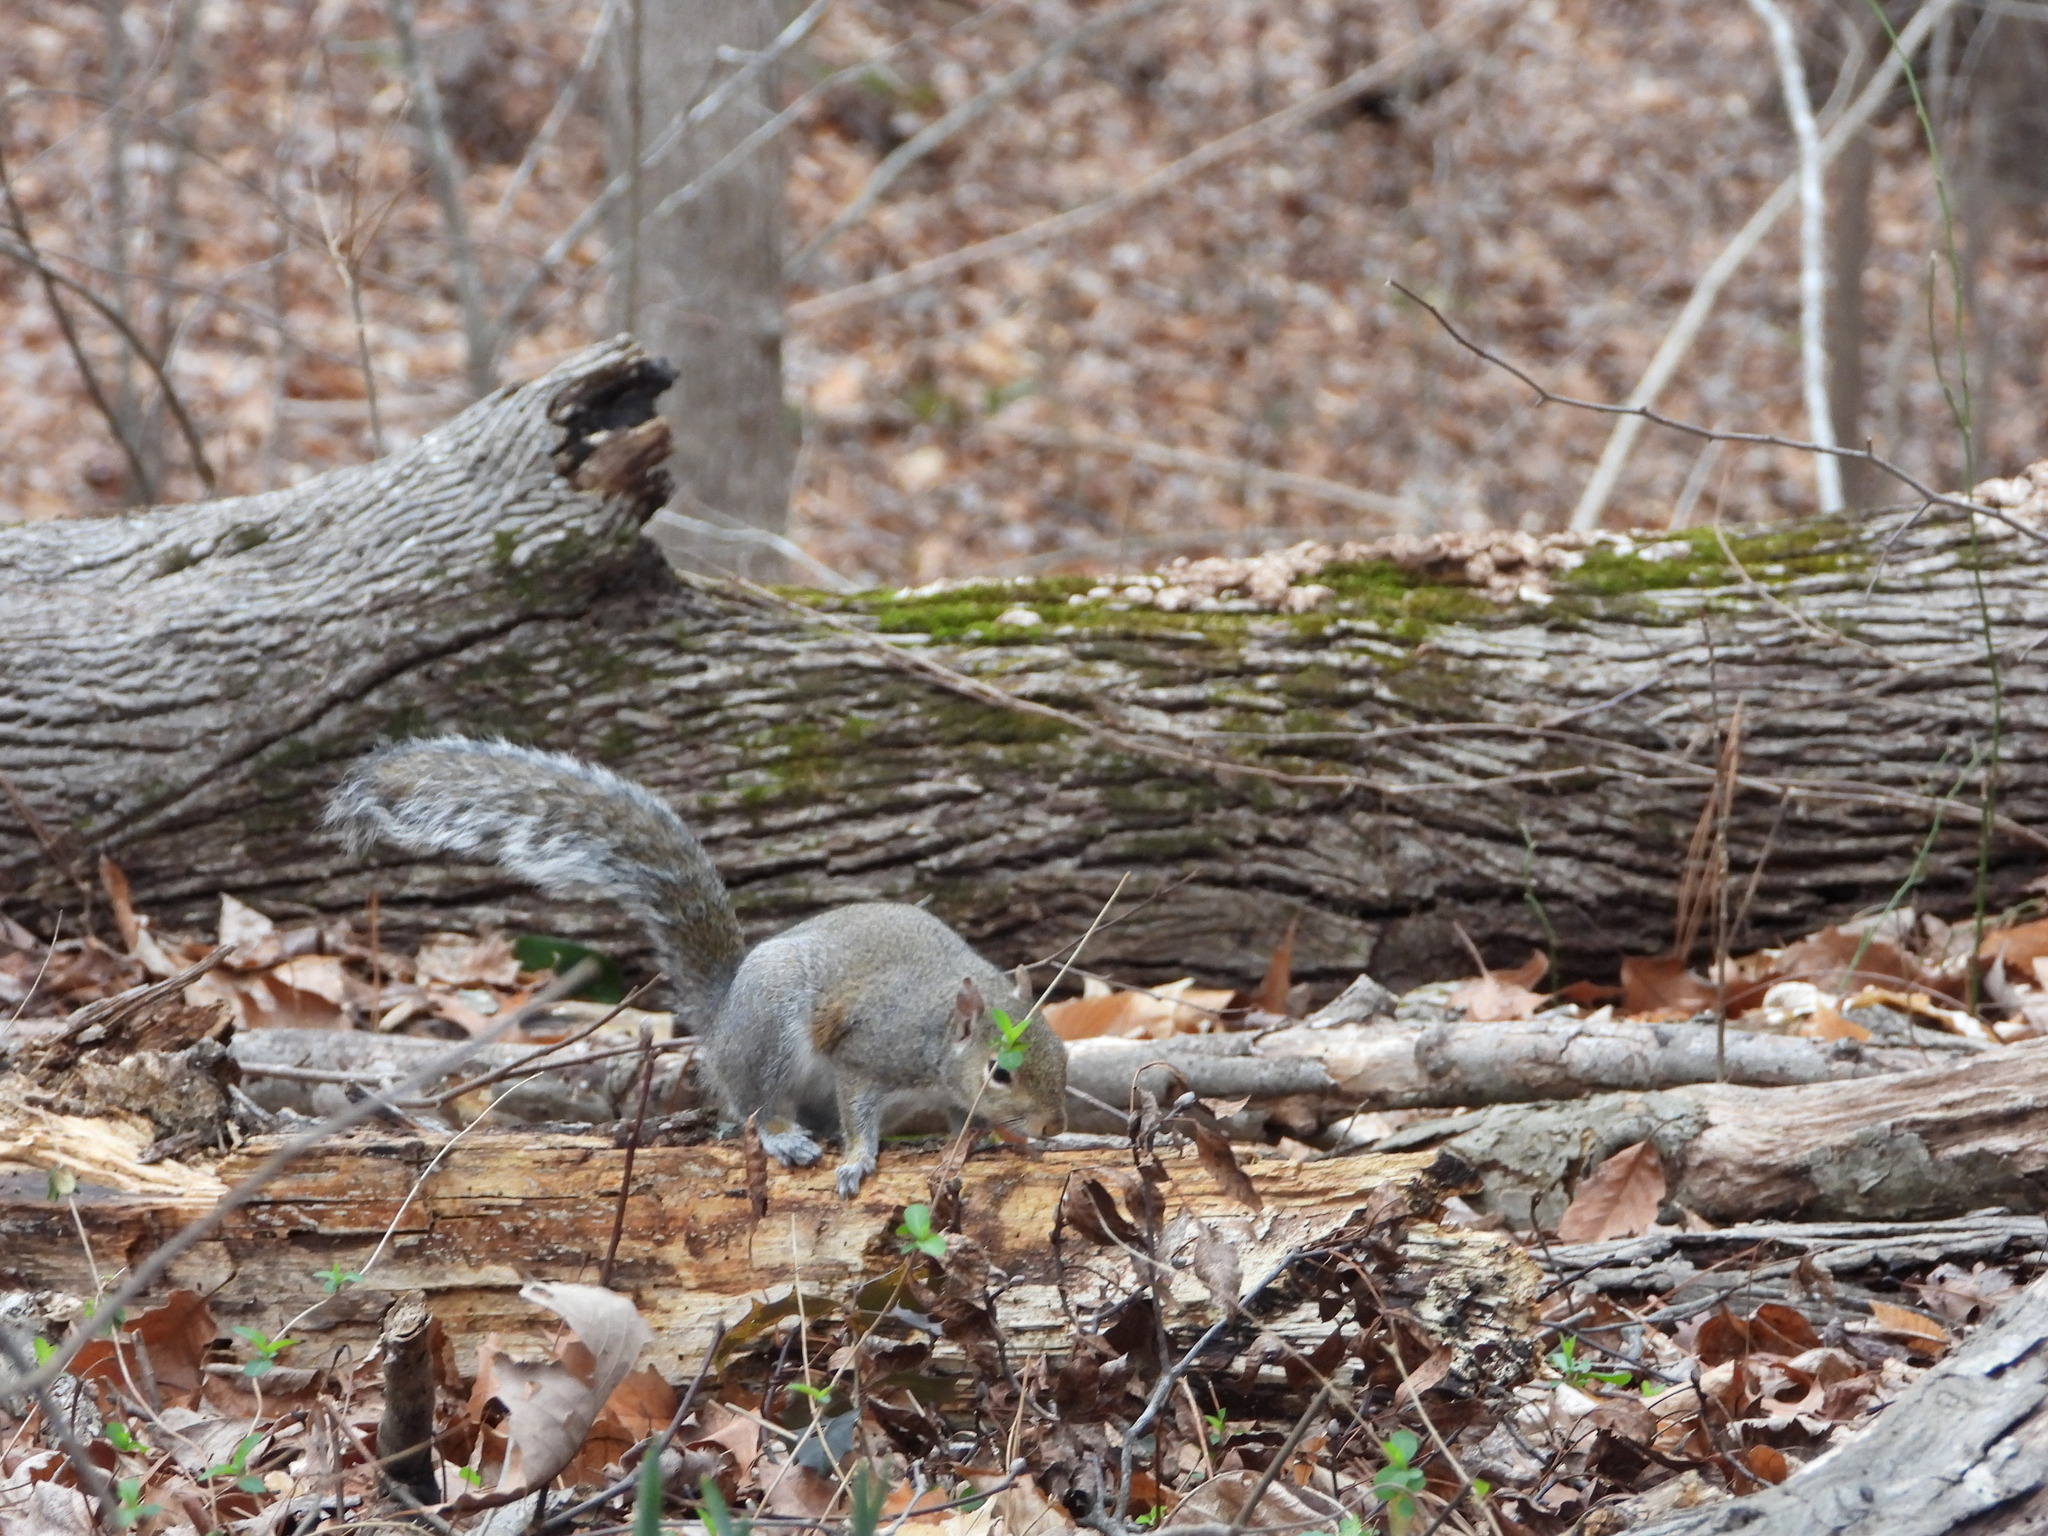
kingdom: Animalia
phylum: Chordata
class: Mammalia
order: Rodentia
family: Sciuridae
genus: Sciurus
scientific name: Sciurus carolinensis
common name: Eastern gray squirrel
